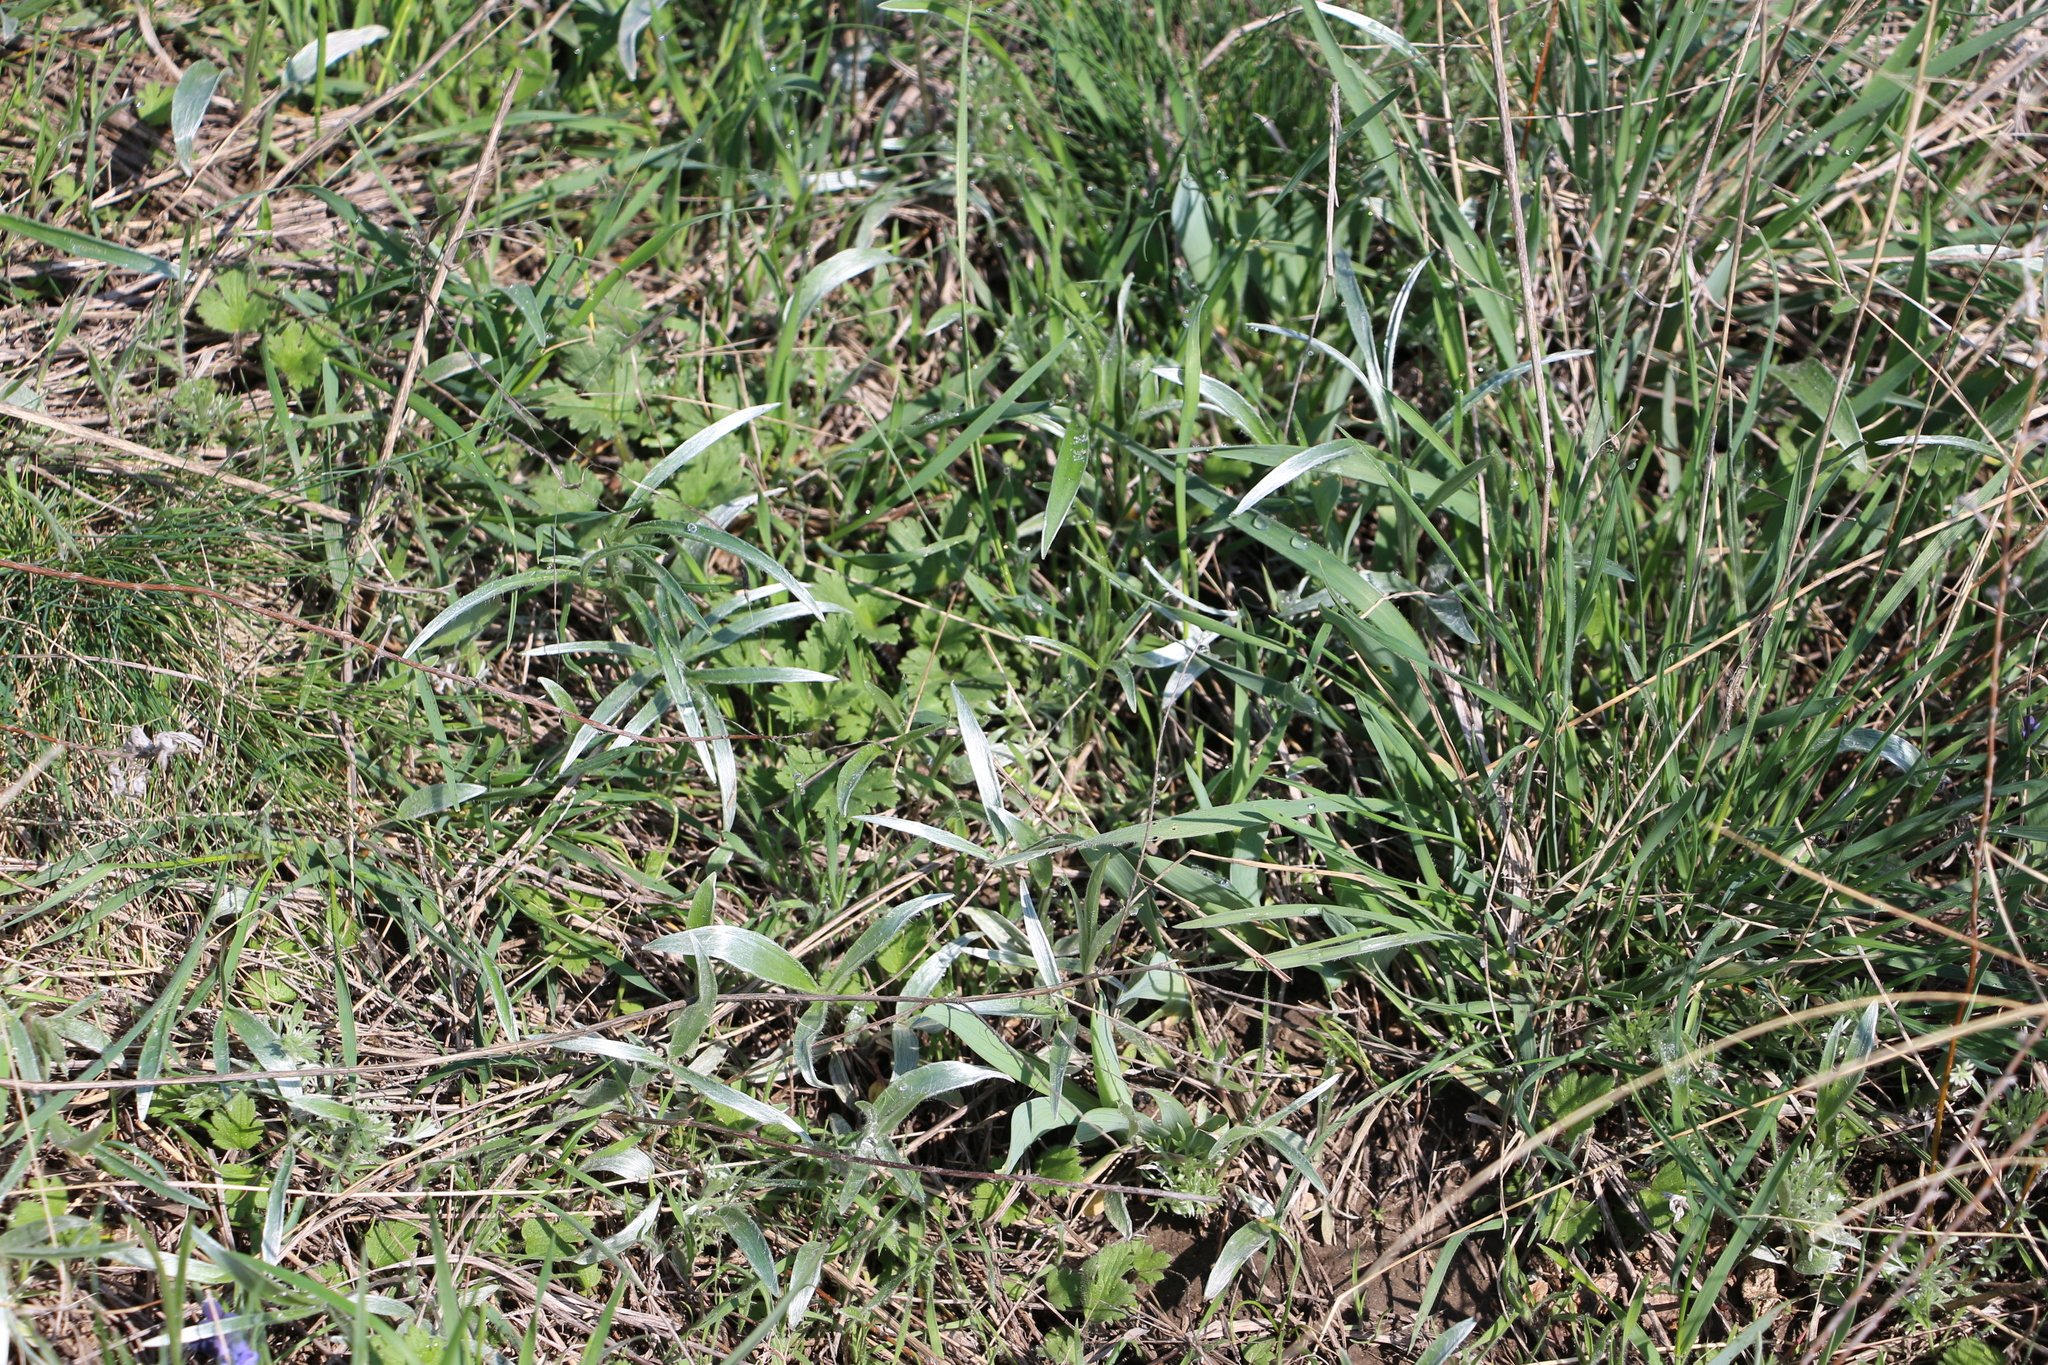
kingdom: Plantae
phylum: Tracheophyta
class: Magnoliopsida
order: Ranunculales
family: Ranunculaceae
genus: Ranunculus
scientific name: Ranunculus illyricus
